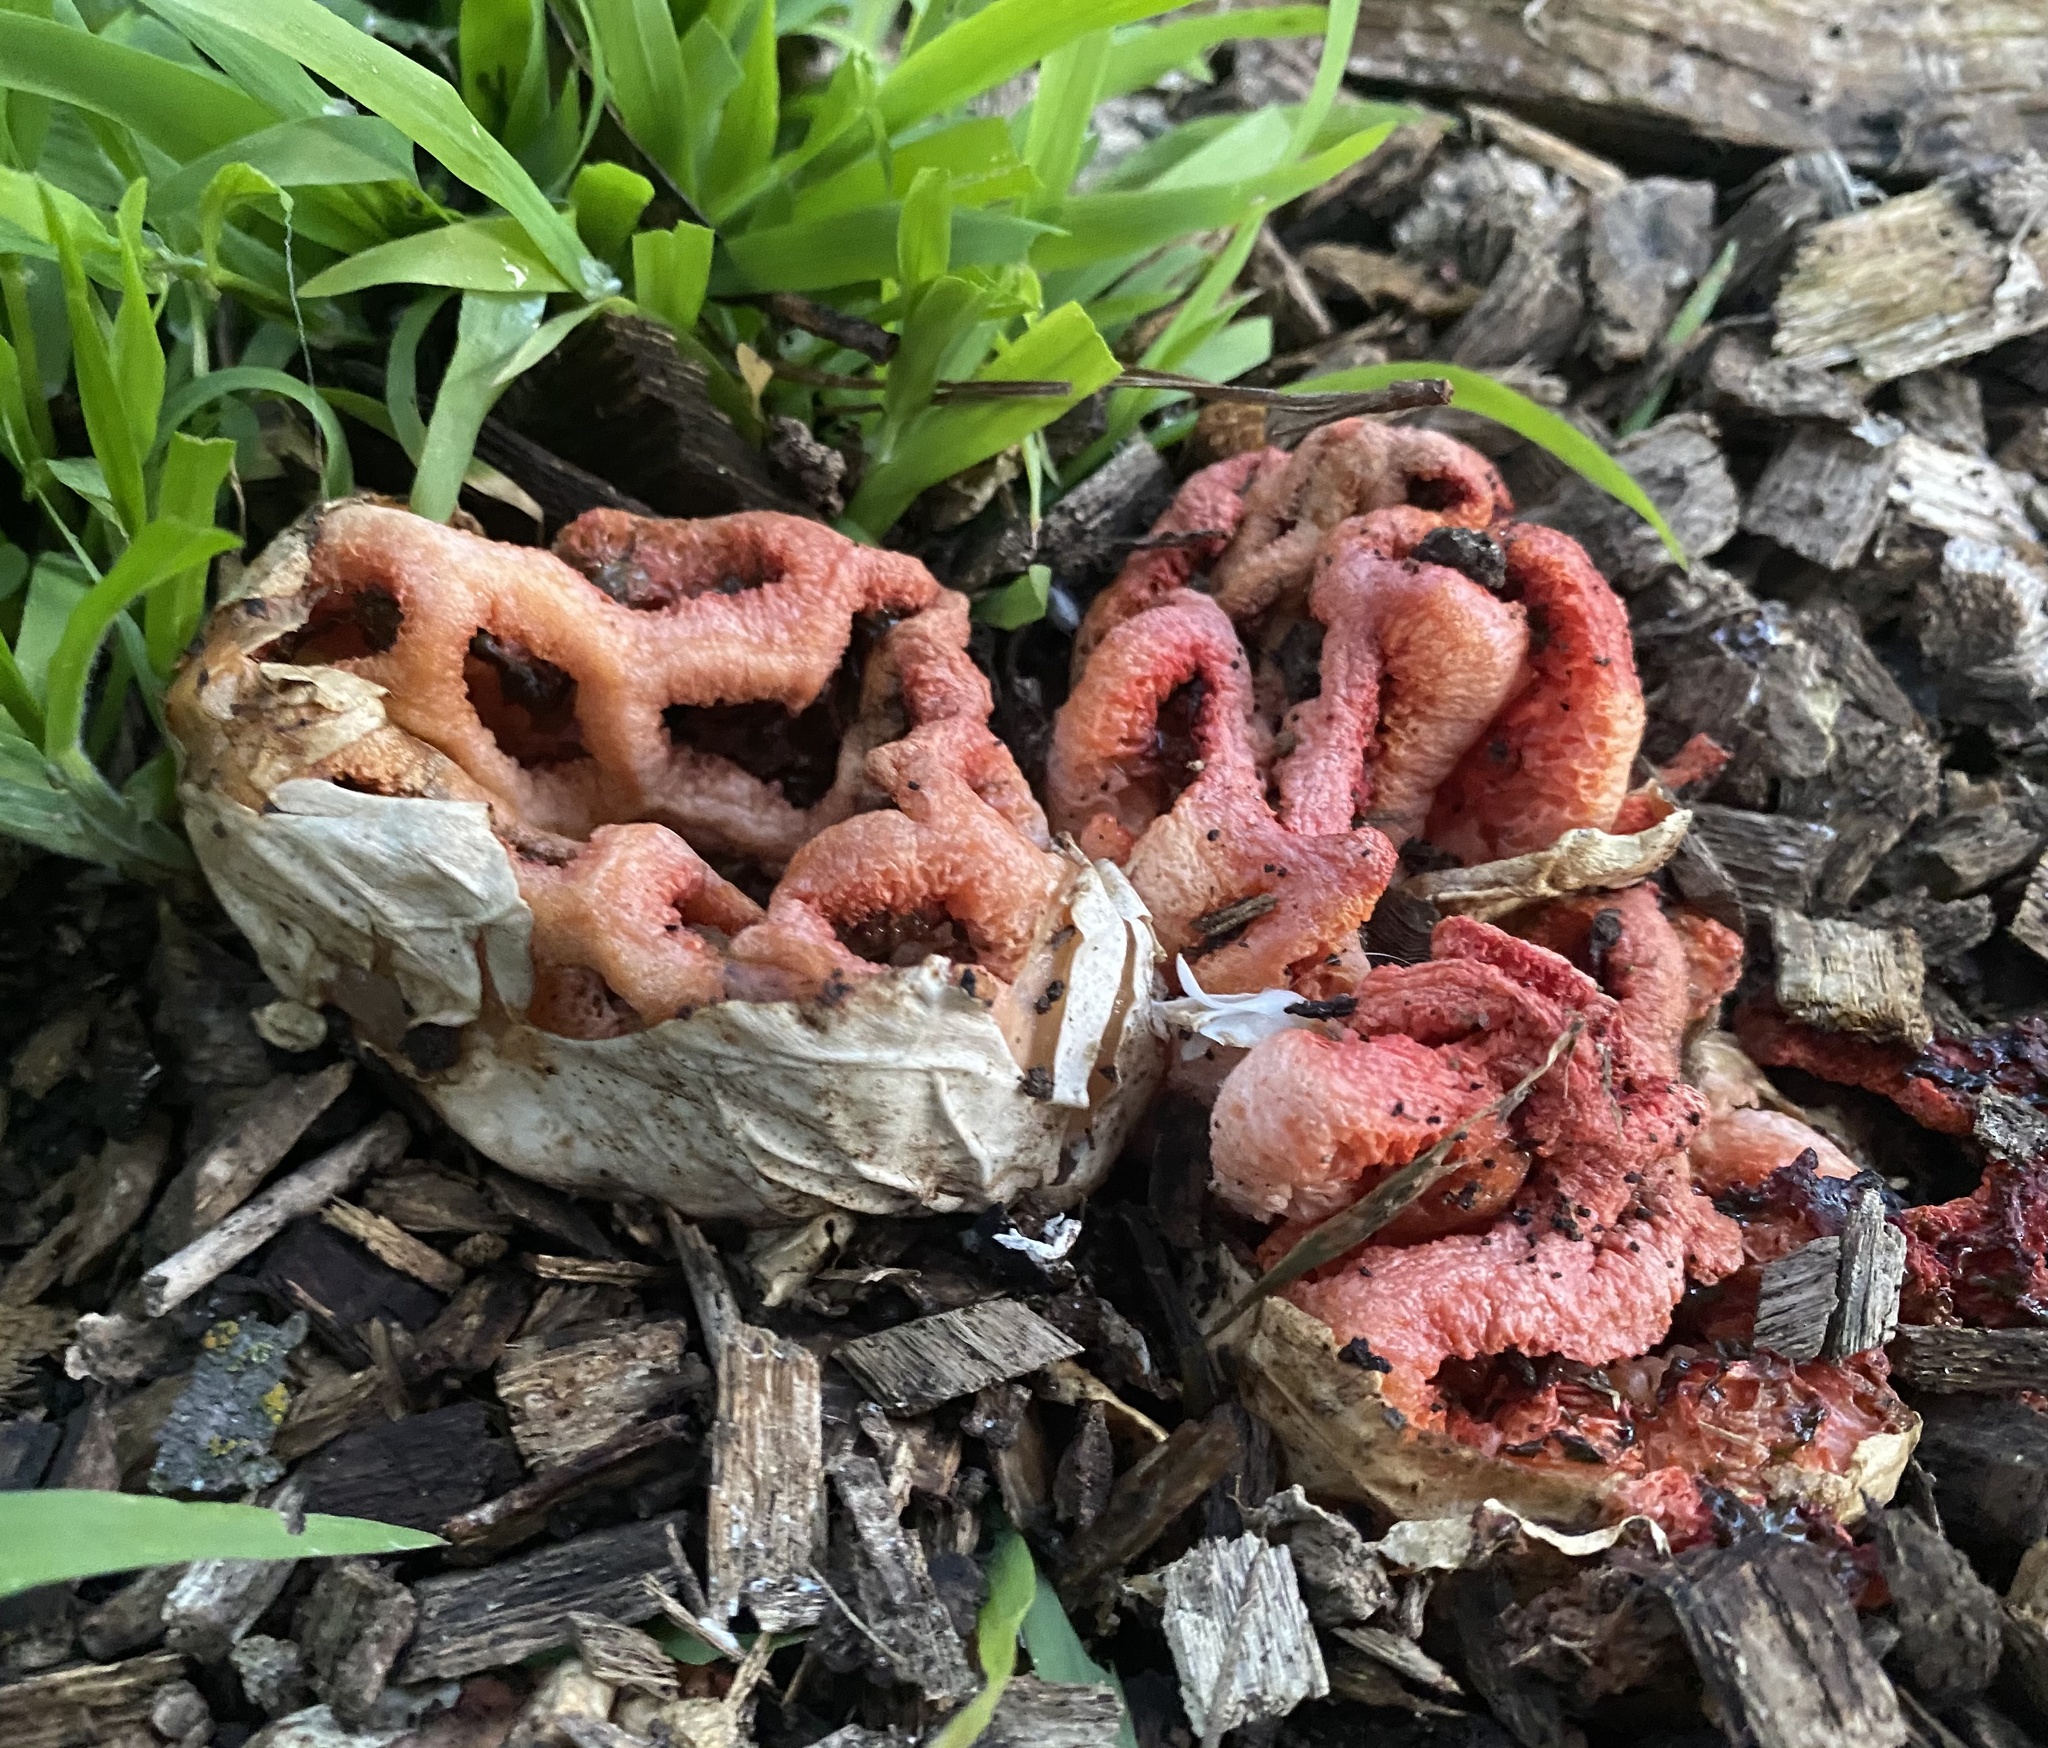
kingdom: Fungi
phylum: Basidiomycota
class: Agaricomycetes
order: Phallales
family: Phallaceae
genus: Clathrus
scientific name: Clathrus ruber
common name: Red cage
